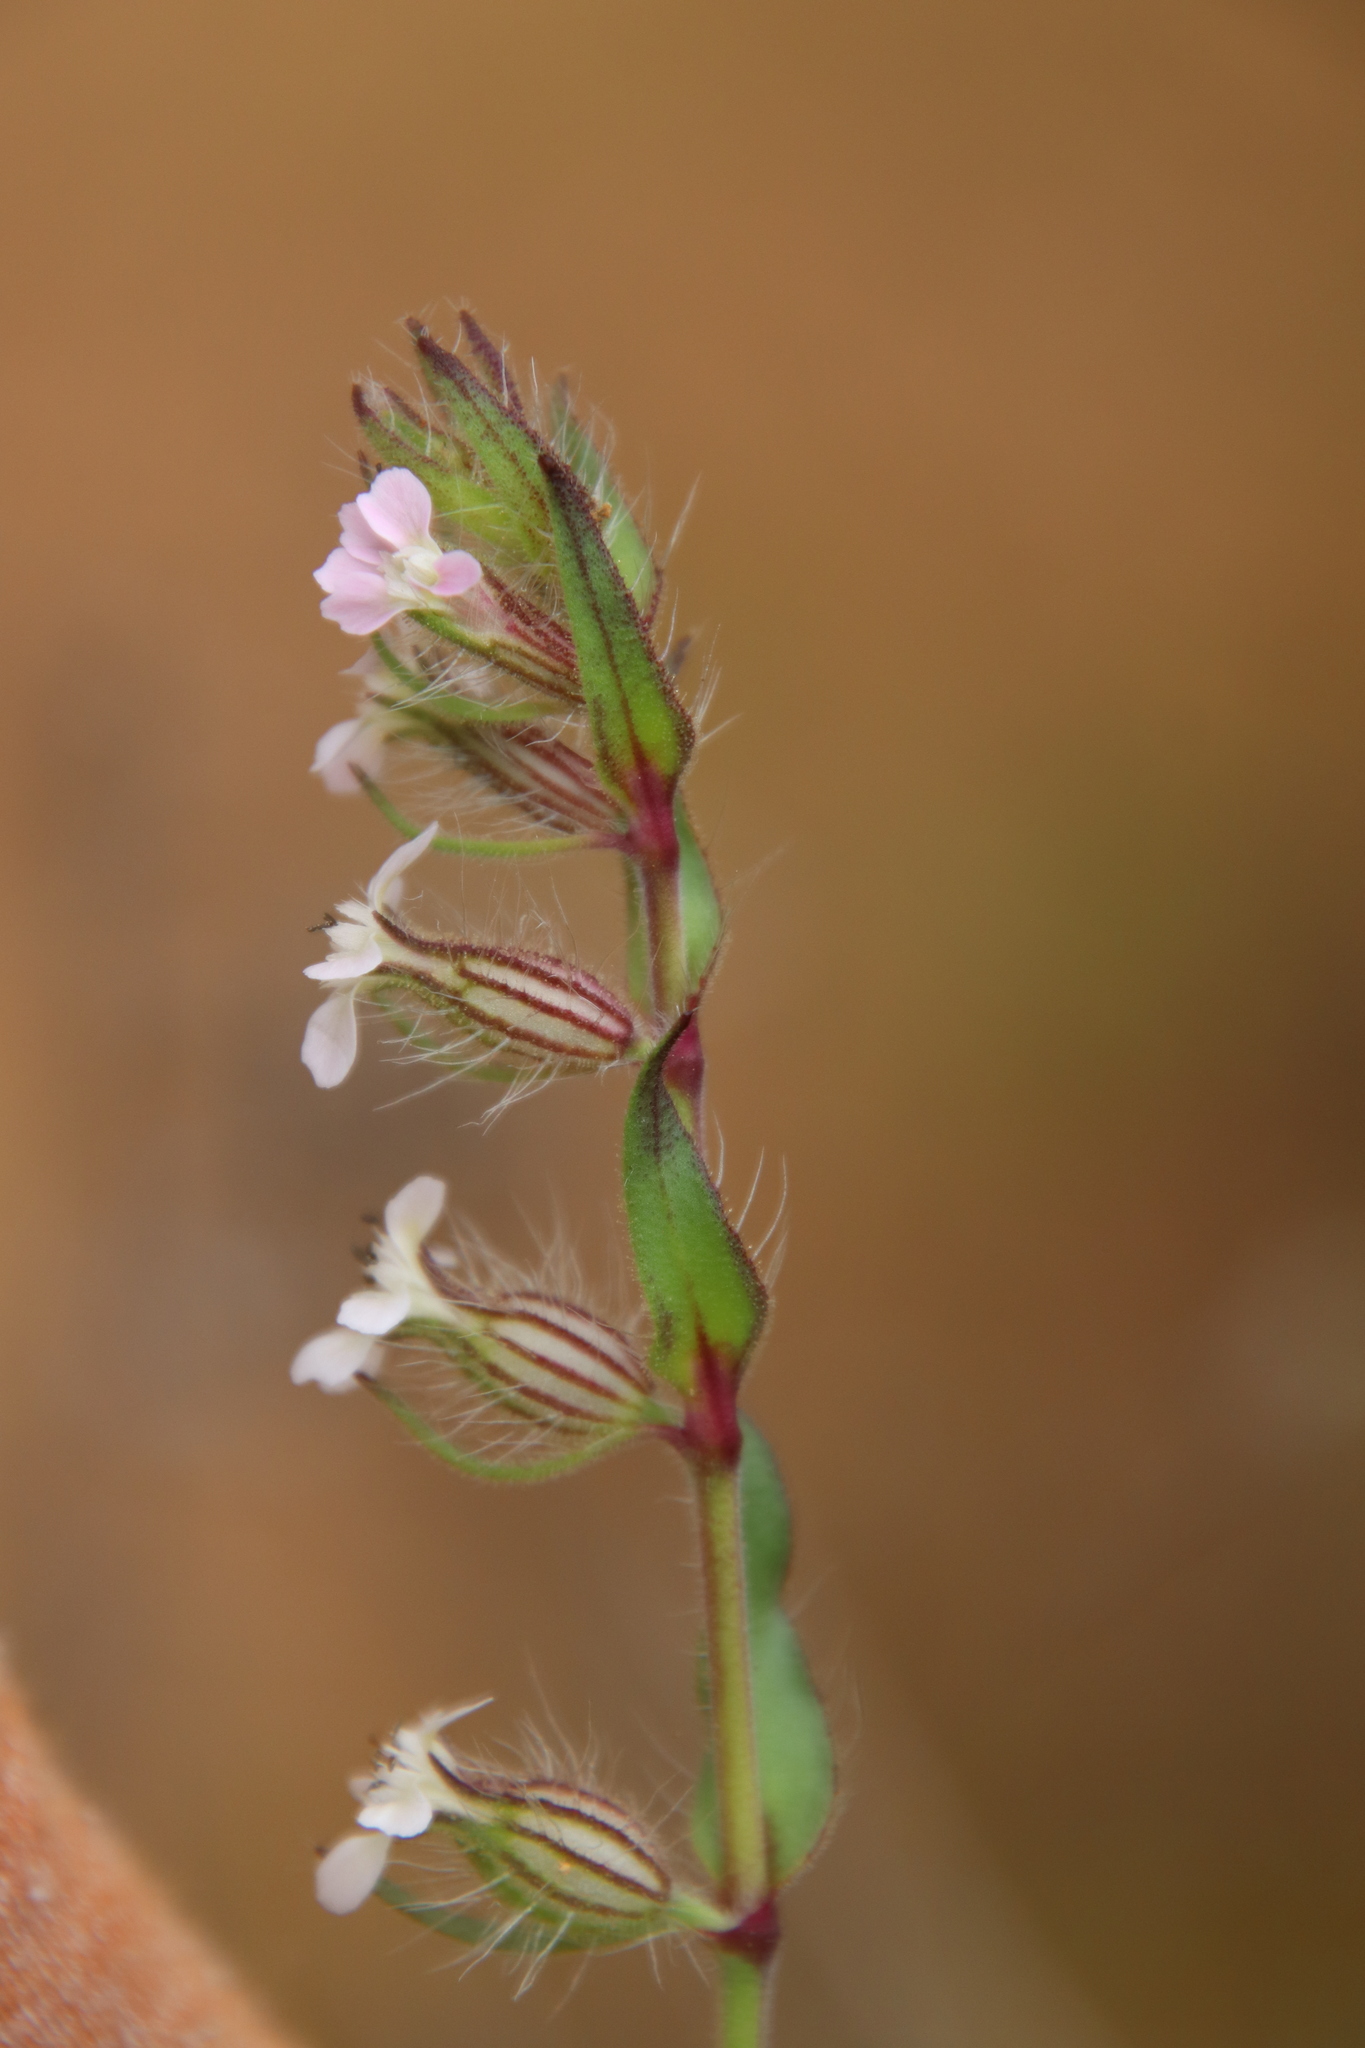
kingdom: Plantae
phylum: Tracheophyta
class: Magnoliopsida
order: Caryophyllales
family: Caryophyllaceae
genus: Silene
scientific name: Silene gallica
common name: Small-flowered catchfly
